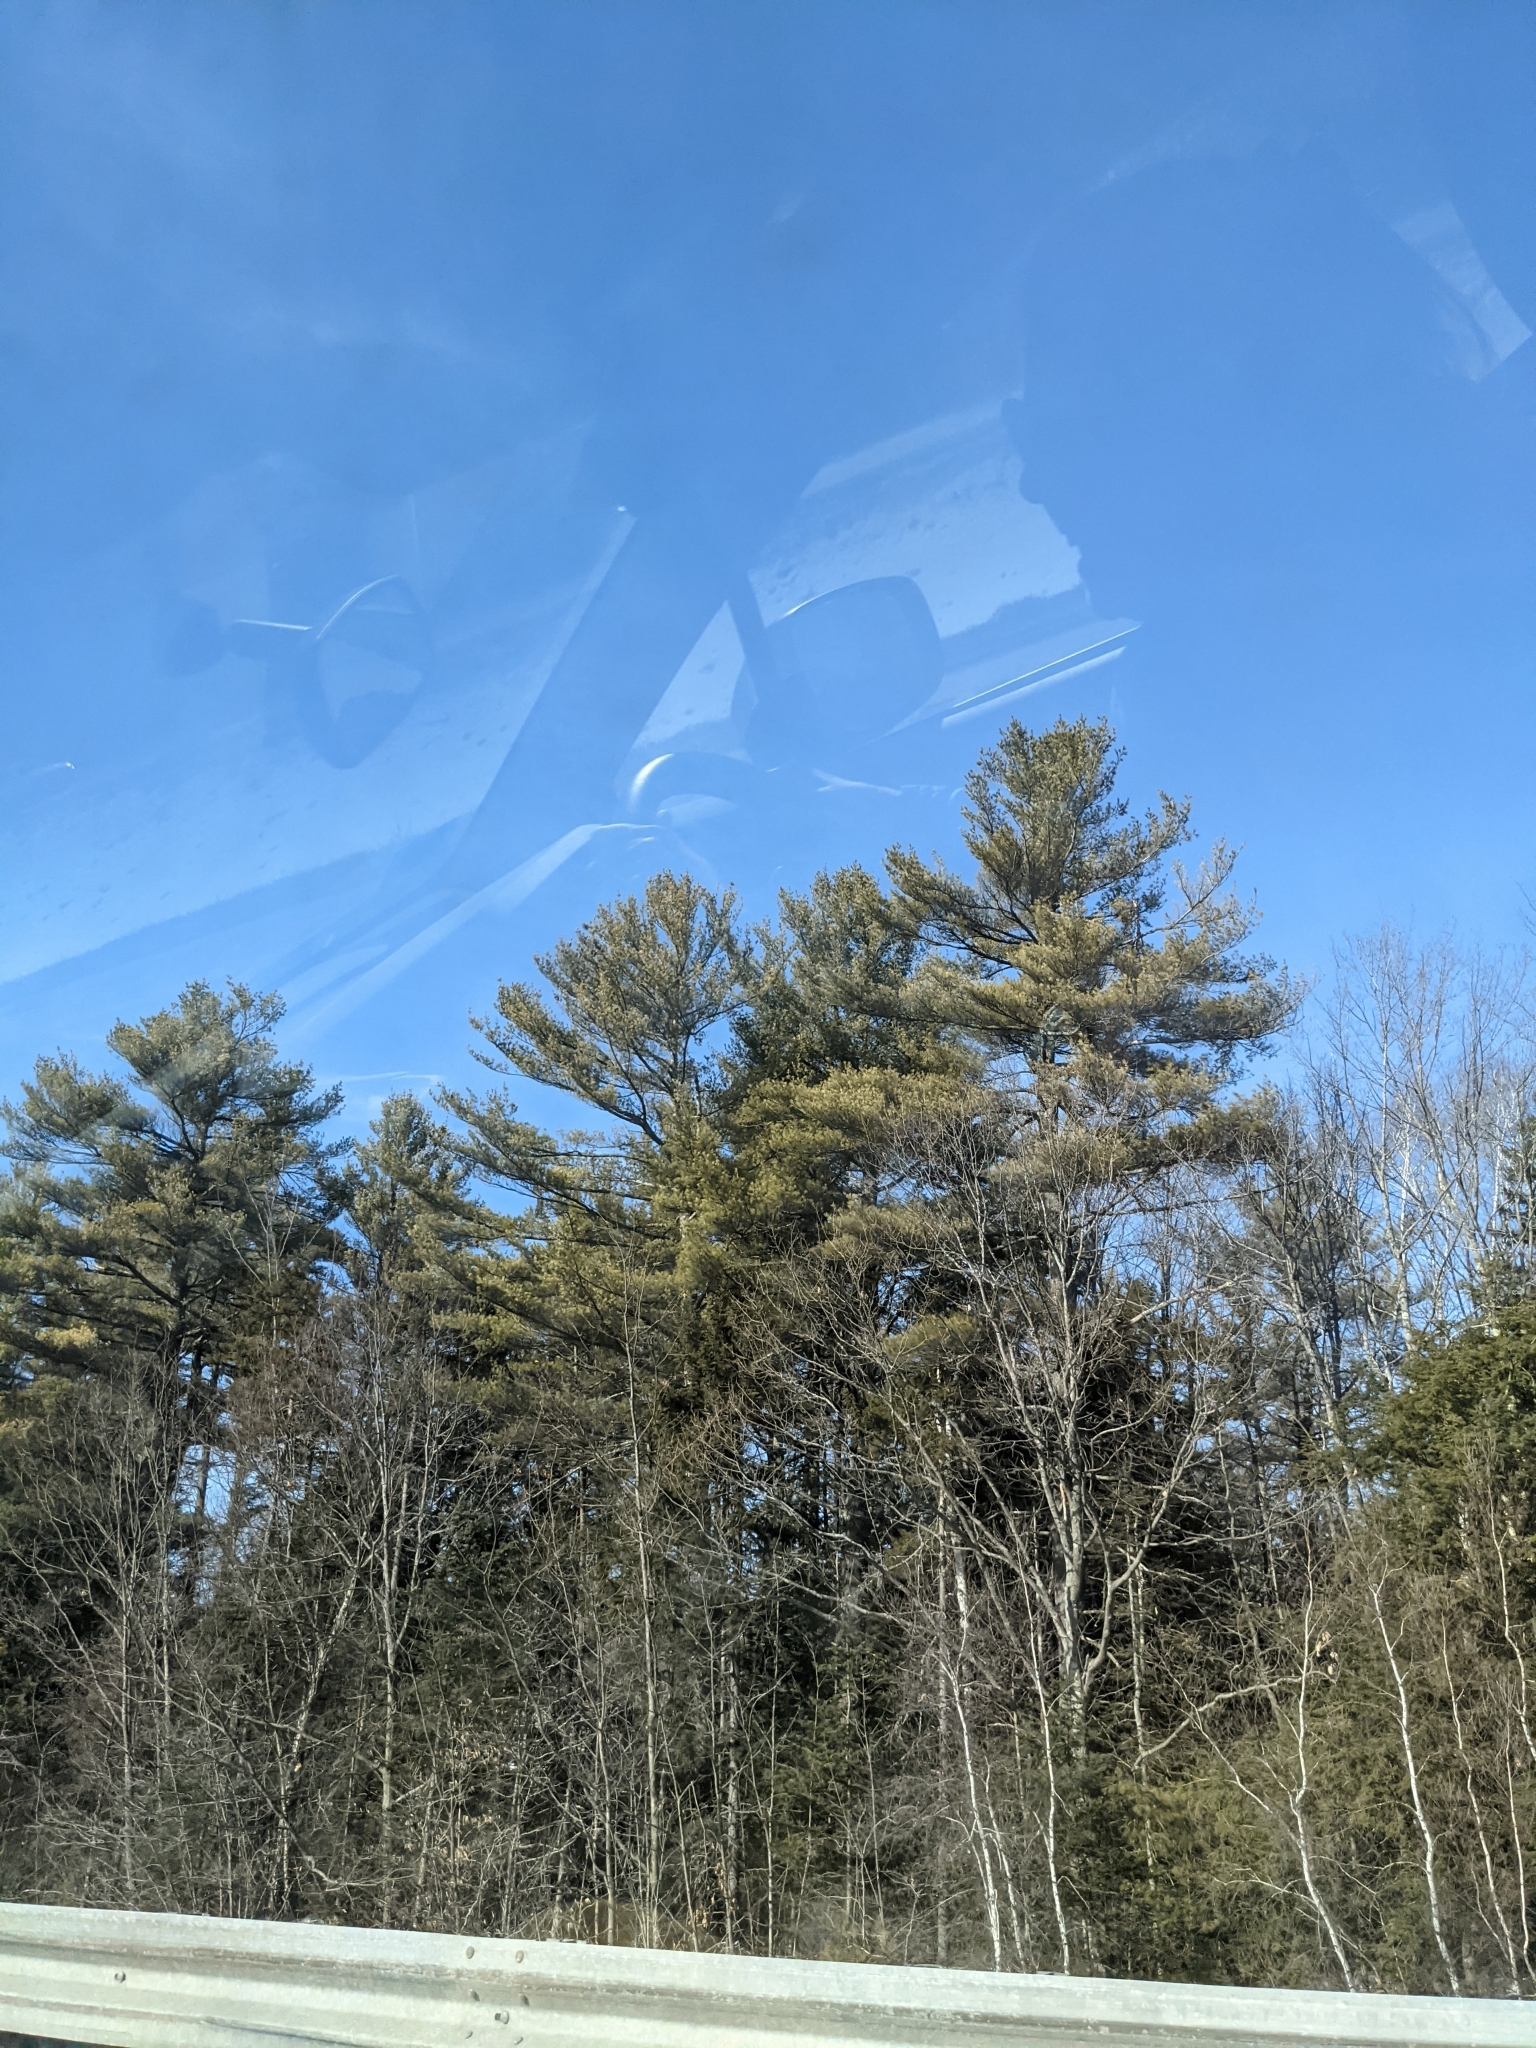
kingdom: Plantae
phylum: Tracheophyta
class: Pinopsida
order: Pinales
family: Pinaceae
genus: Pinus
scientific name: Pinus strobus
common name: Weymouth pine
